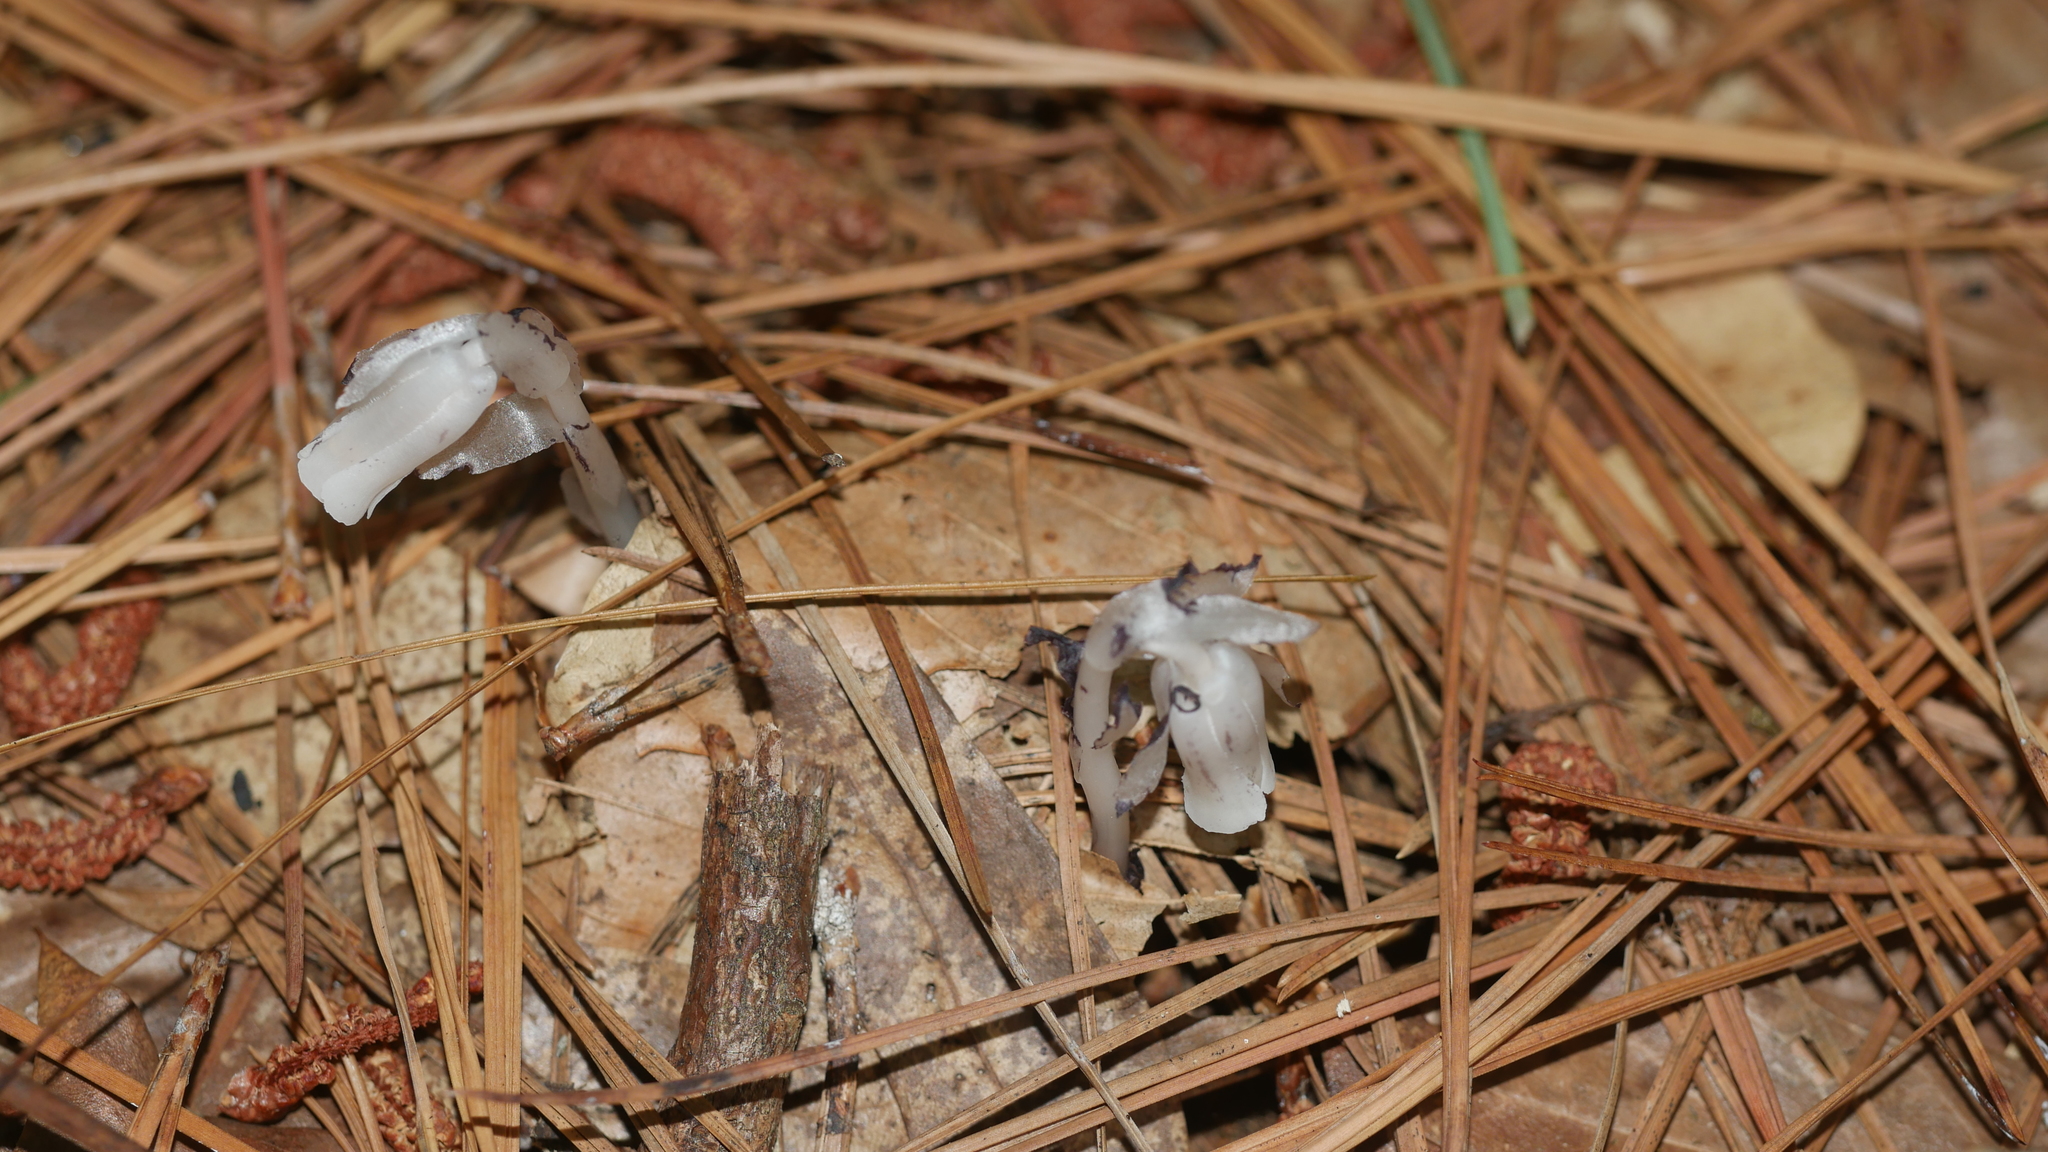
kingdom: Plantae
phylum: Tracheophyta
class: Magnoliopsida
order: Ericales
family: Ericaceae
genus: Monotropa
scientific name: Monotropa uniflora
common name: Convulsion root
